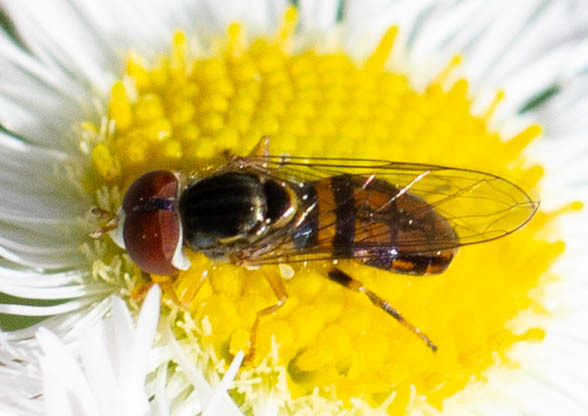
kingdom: Animalia
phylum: Arthropoda
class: Insecta
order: Diptera
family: Syrphidae
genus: Toxomerus
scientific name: Toxomerus boscii
